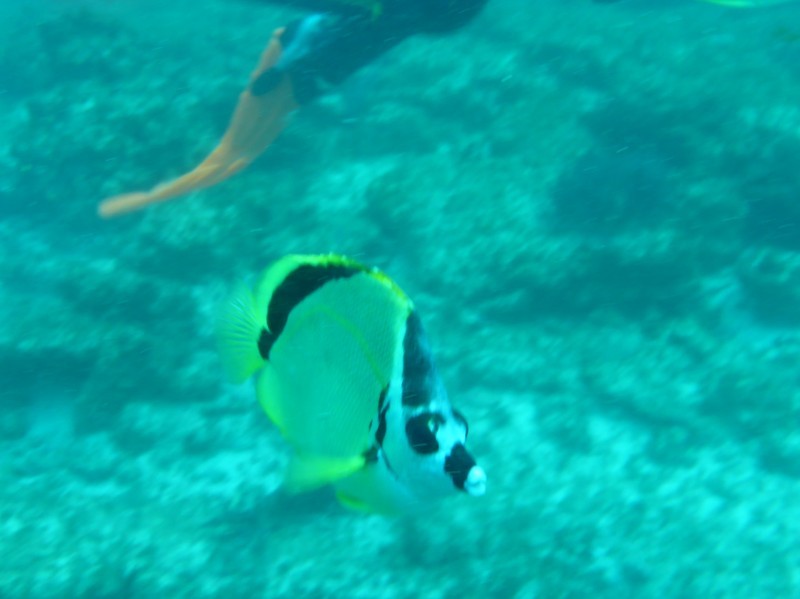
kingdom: Animalia
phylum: Chordata
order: Perciformes
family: Chaetodontidae
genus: Johnrandallia
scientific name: Johnrandallia nigrirostris
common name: Barberfish
